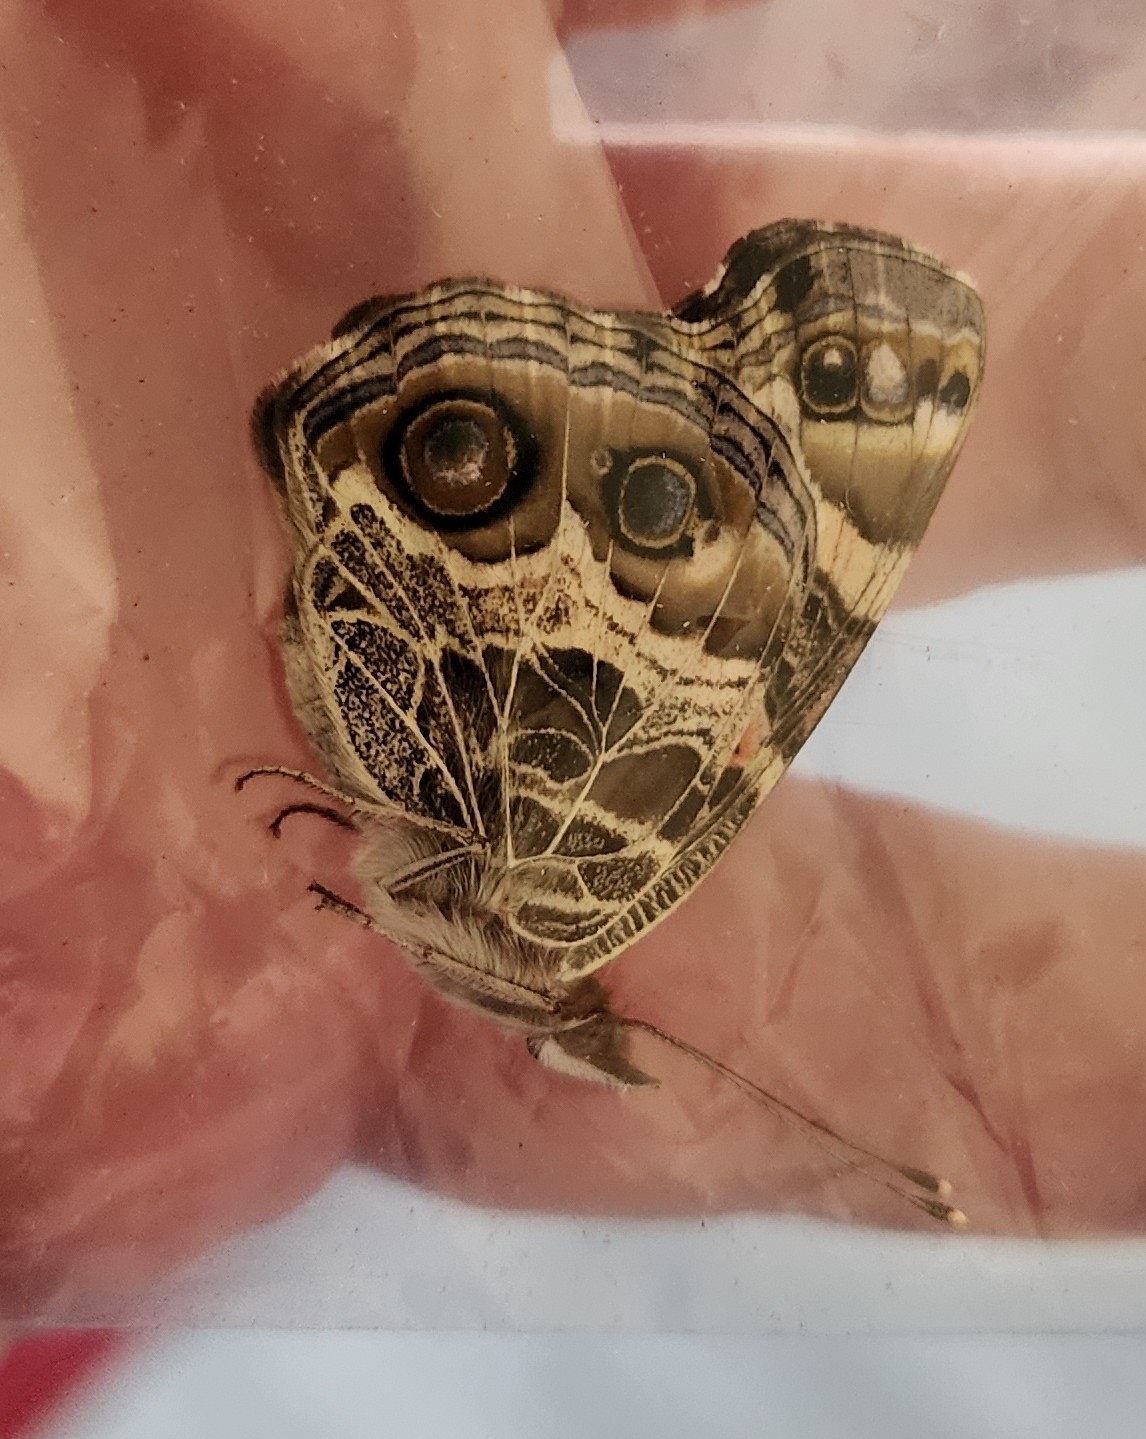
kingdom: Animalia
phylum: Arthropoda
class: Insecta
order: Lepidoptera
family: Nymphalidae
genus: Vanessa
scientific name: Vanessa virginiensis
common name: American lady
